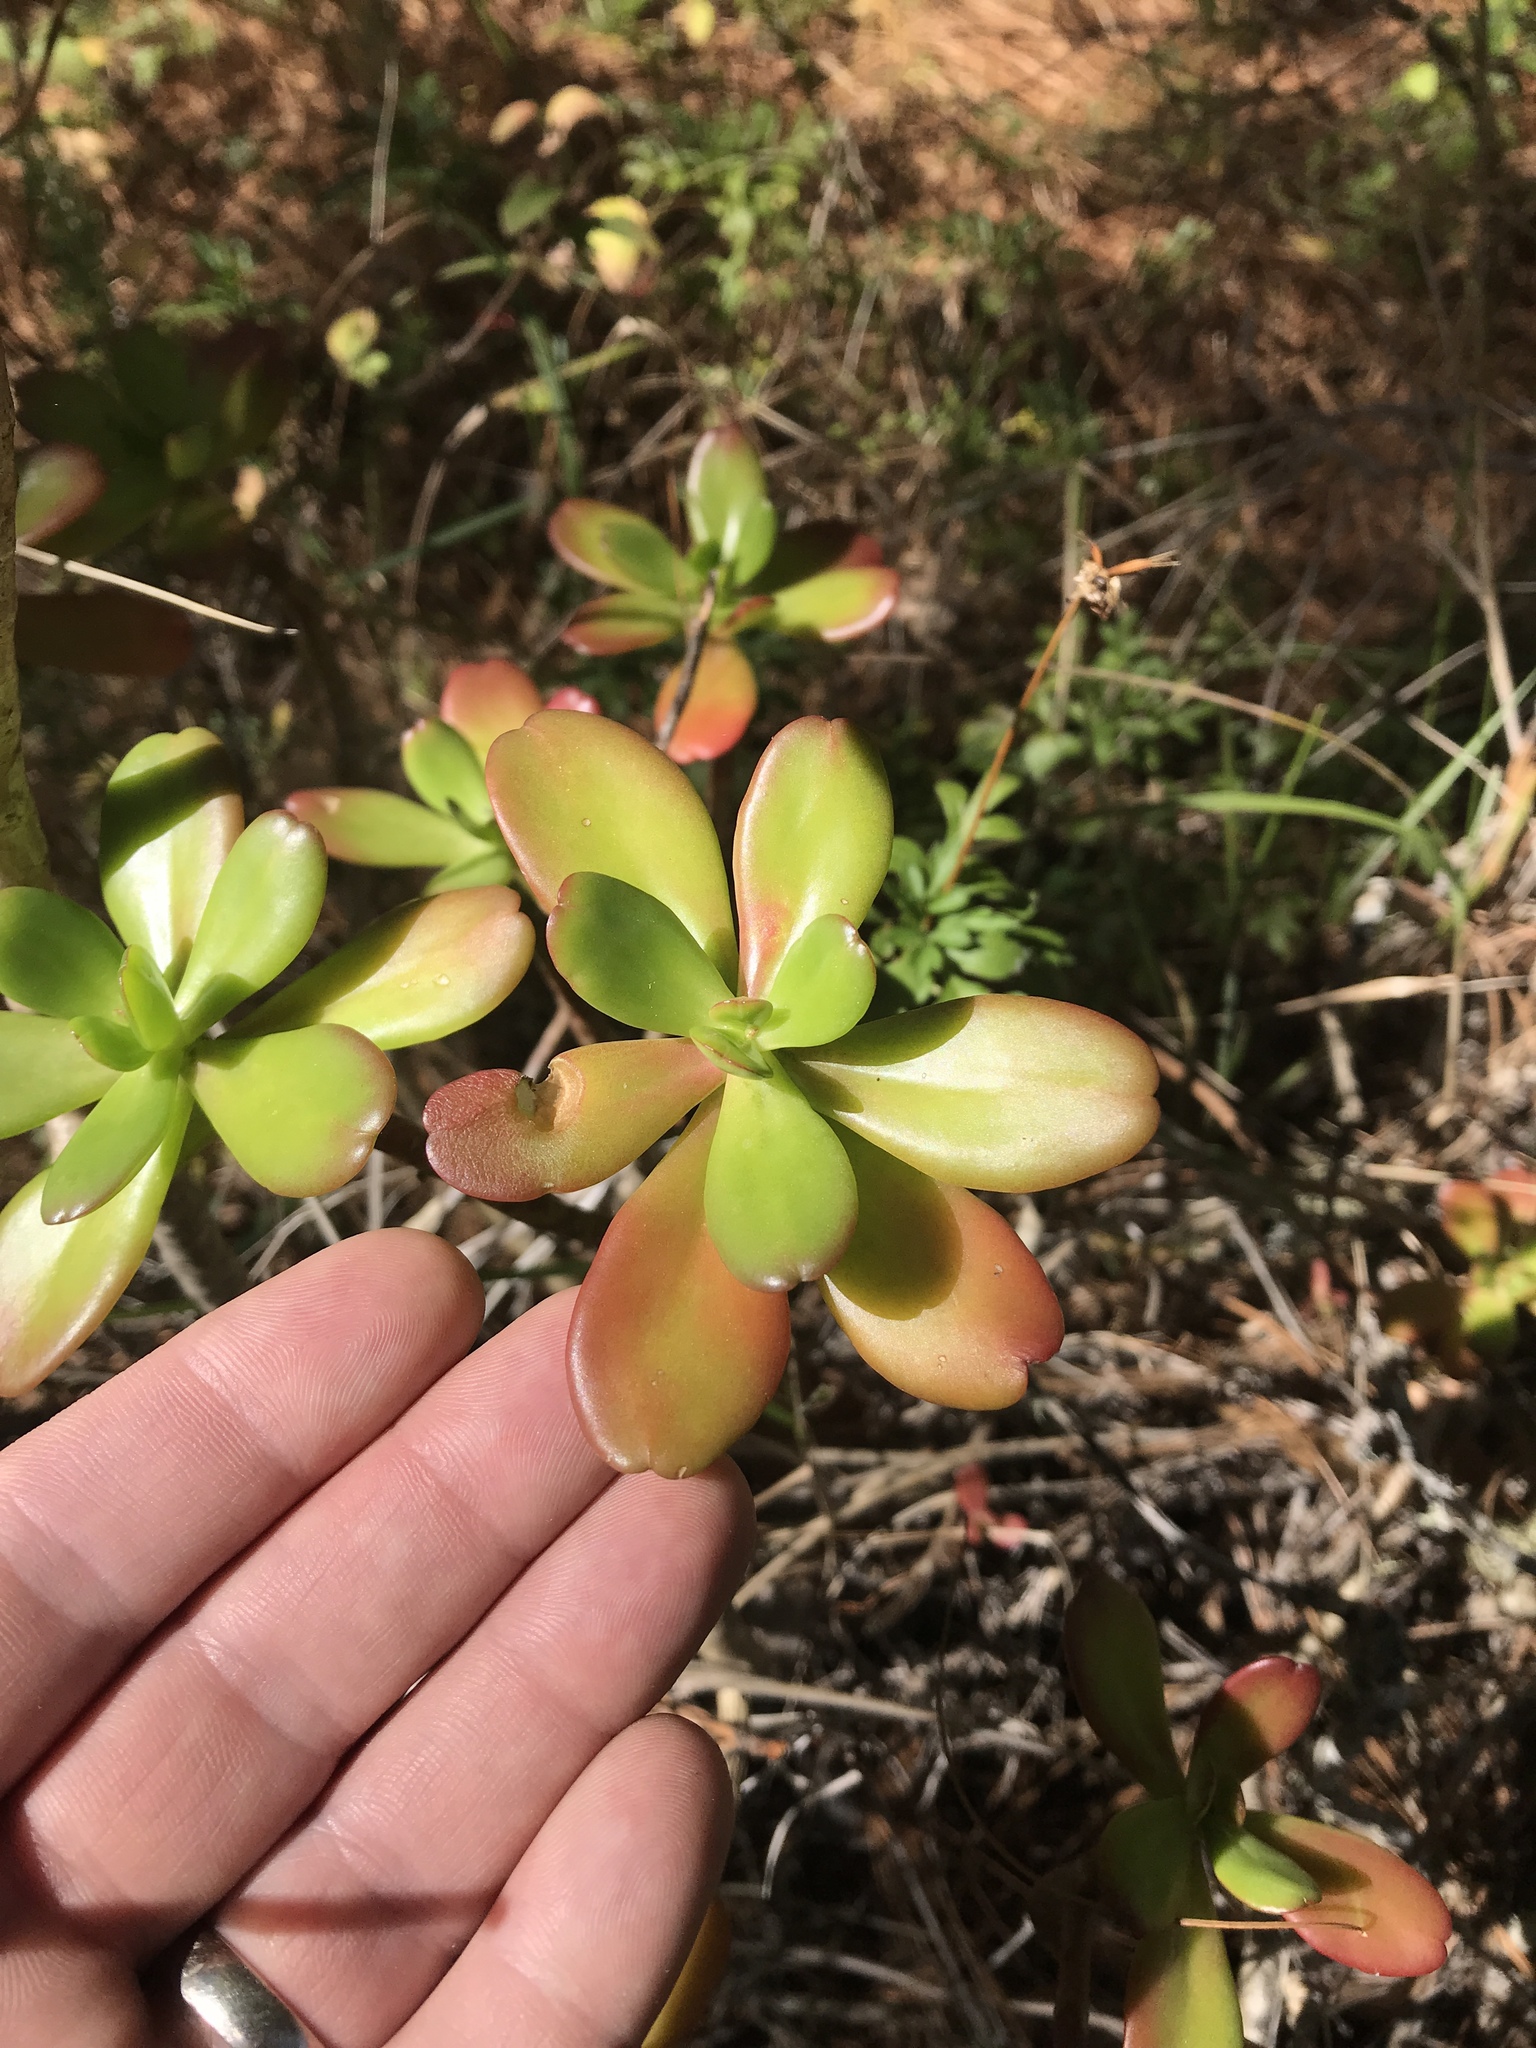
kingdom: Plantae
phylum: Tracheophyta
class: Magnoliopsida
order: Saxifragales
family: Crassulaceae
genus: Sedum
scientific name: Sedum praealtum
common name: Greater mexican-stonecrop
